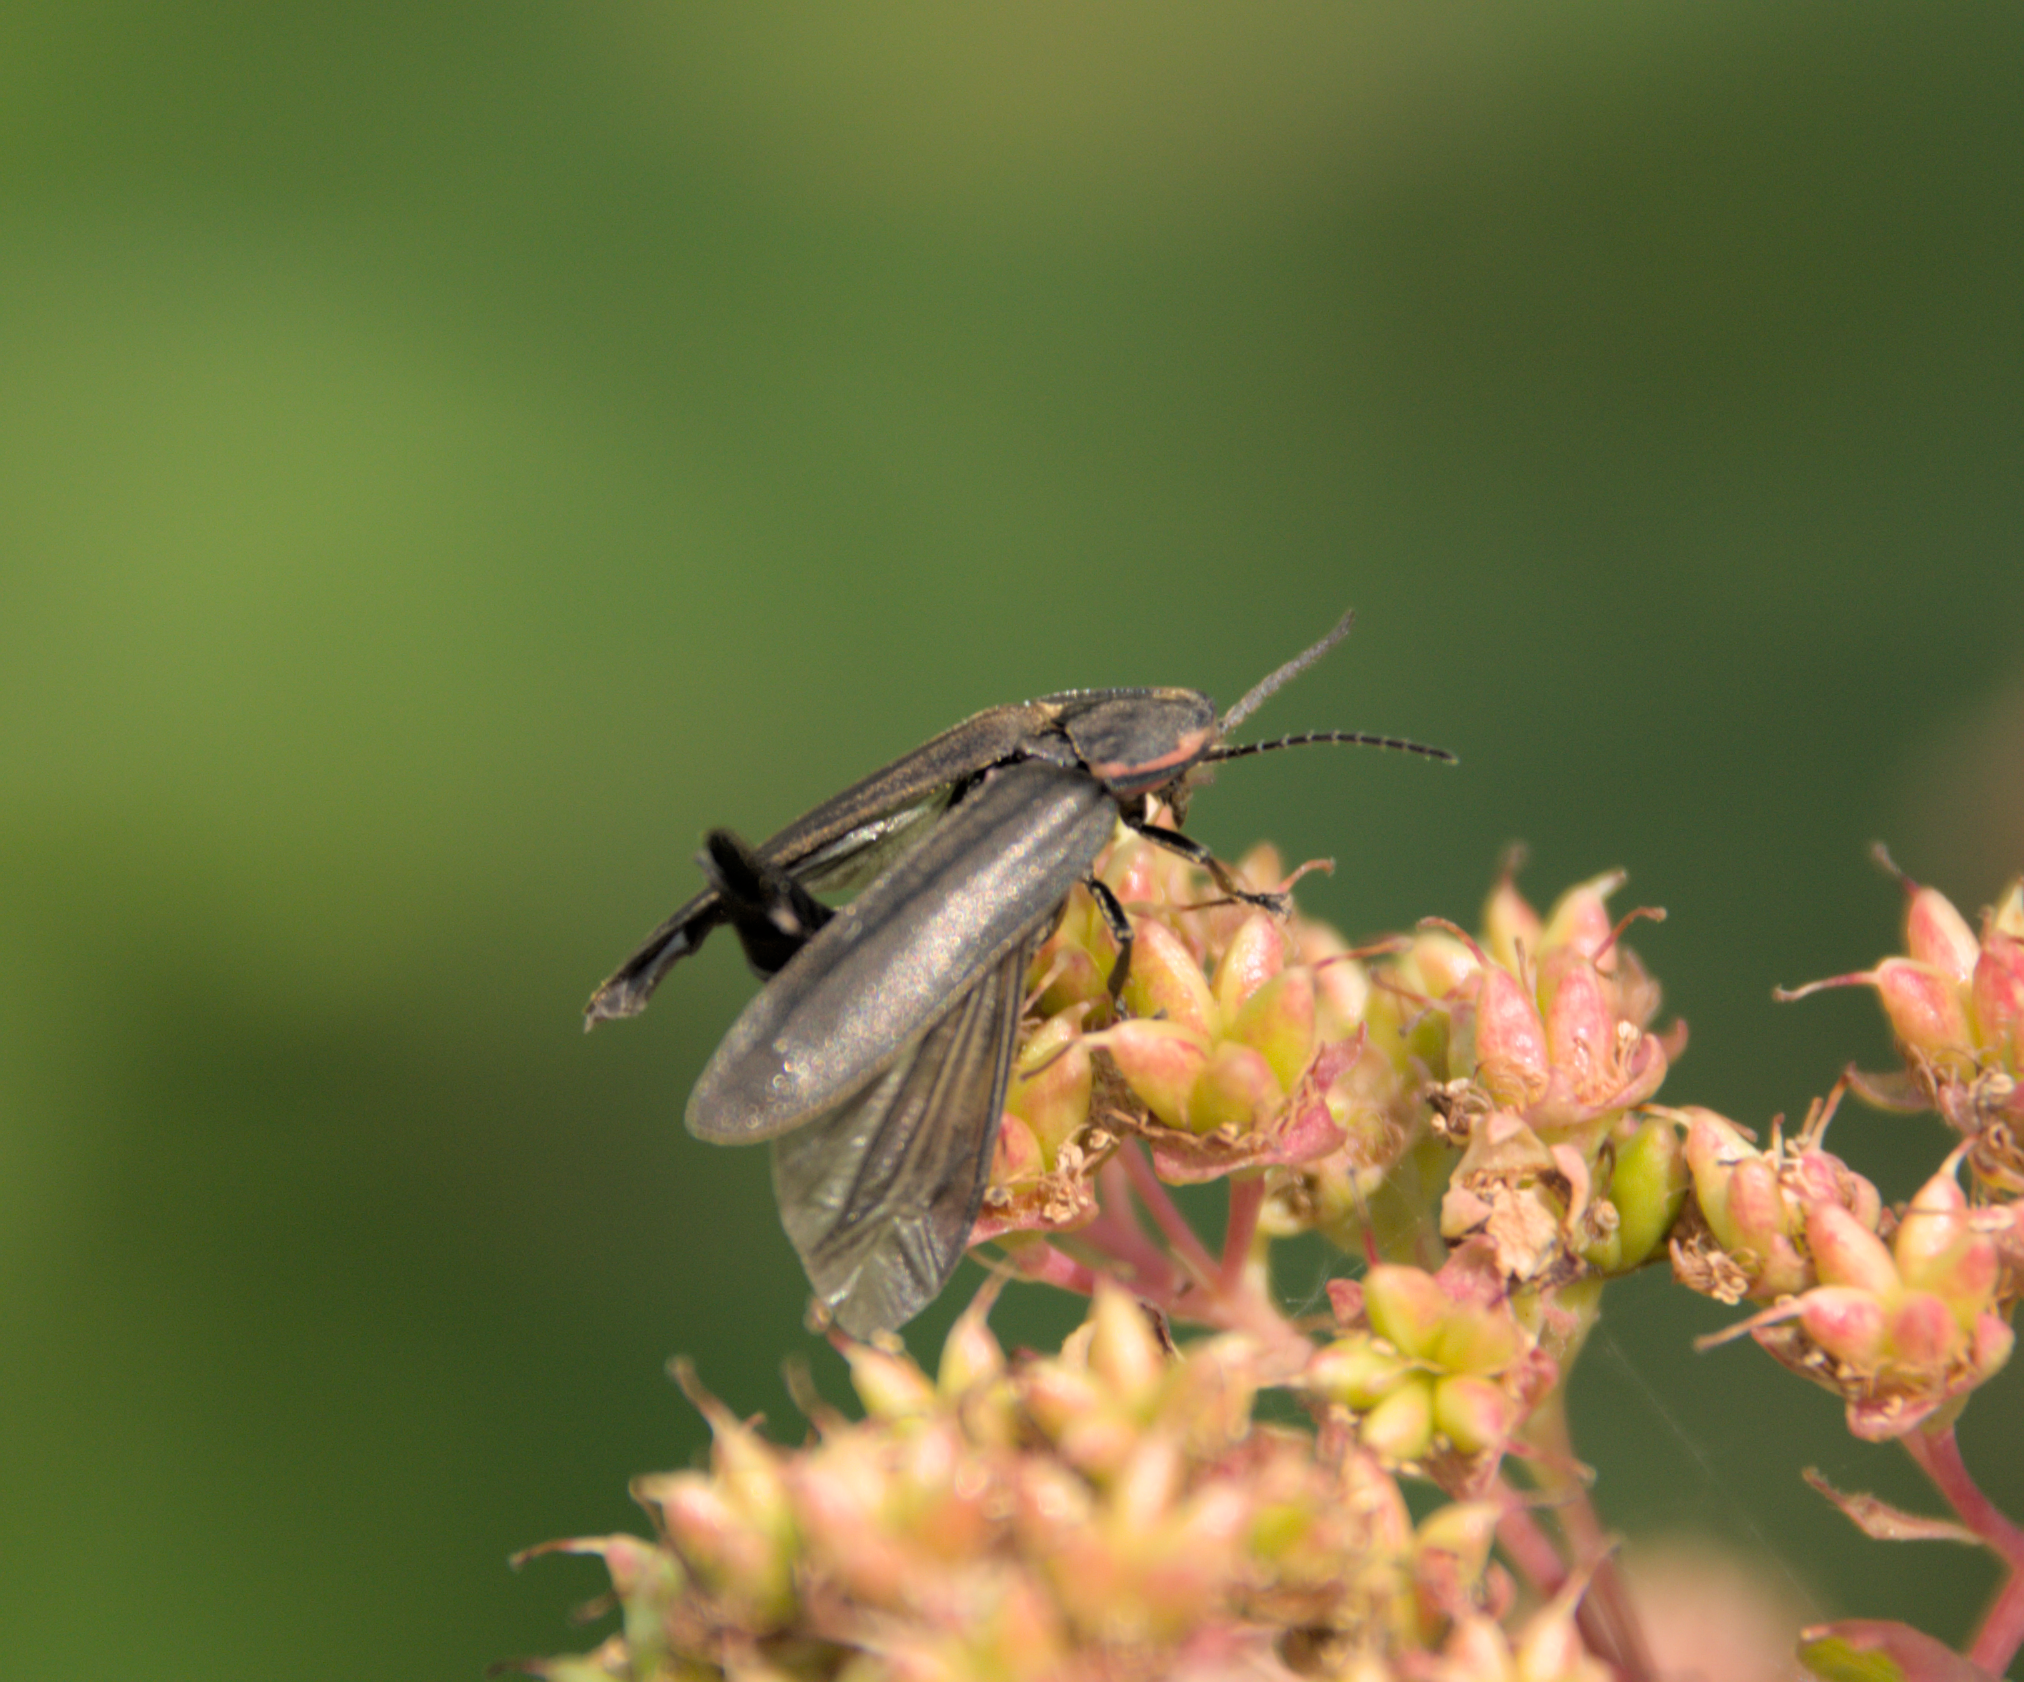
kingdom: Animalia
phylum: Arthropoda
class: Insecta
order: Coleoptera
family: Lampyridae
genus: Photinus
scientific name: Photinus corrusca
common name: Winter firefly
